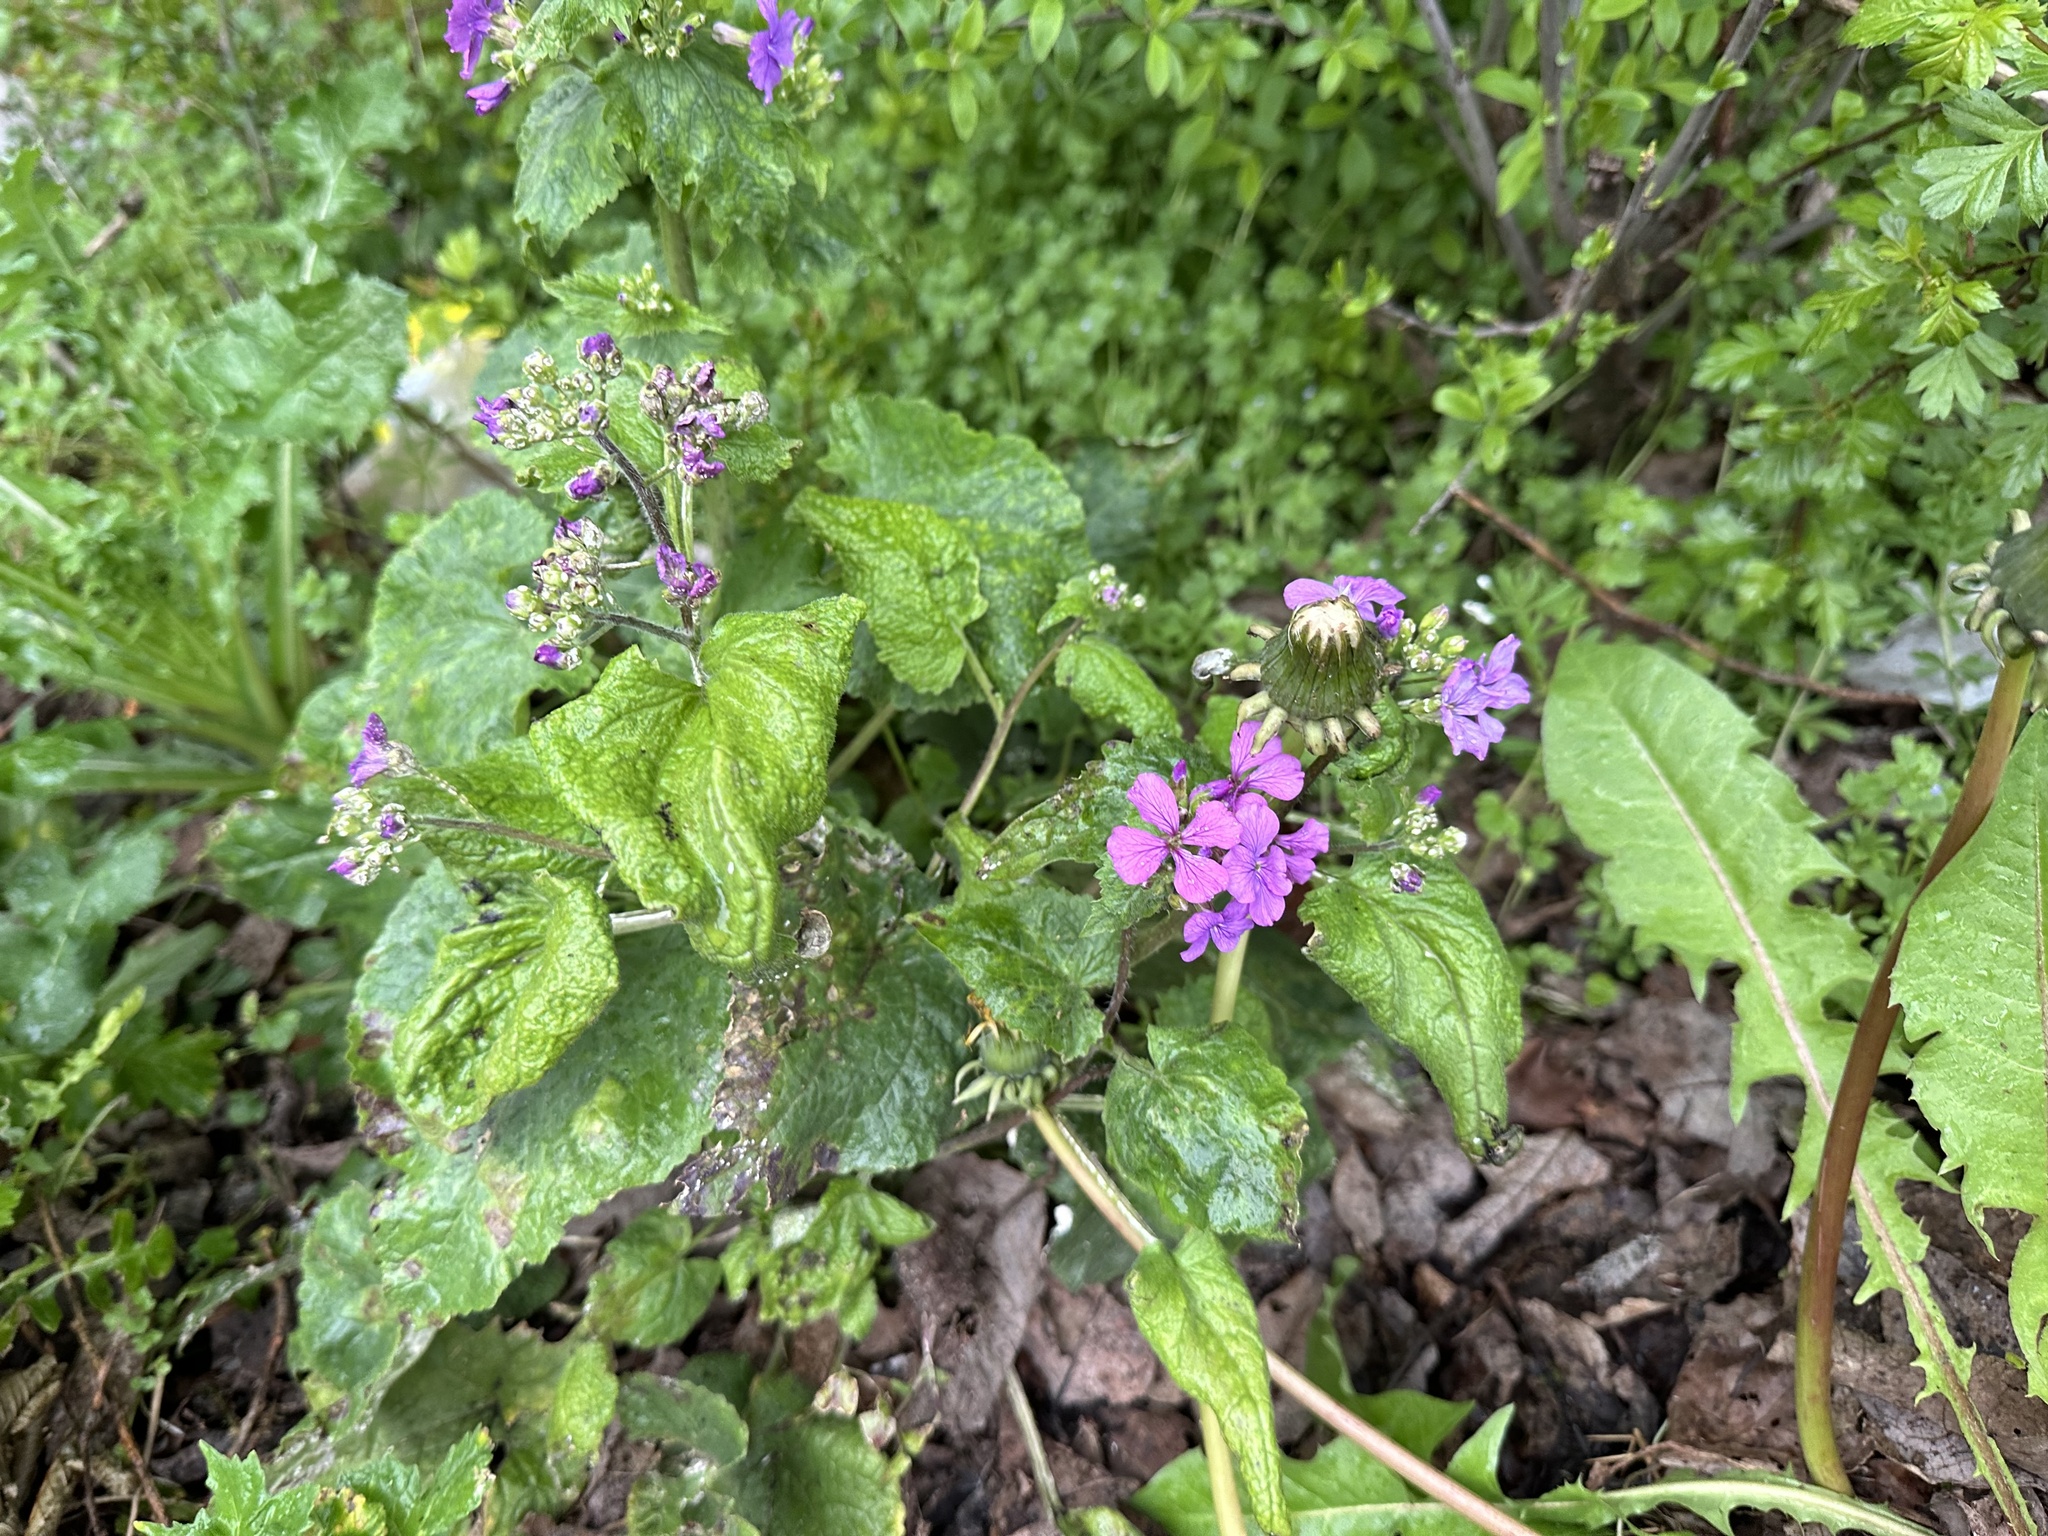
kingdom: Plantae
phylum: Tracheophyta
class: Magnoliopsida
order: Brassicales
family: Brassicaceae
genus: Lunaria
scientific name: Lunaria annua
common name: Honesty
